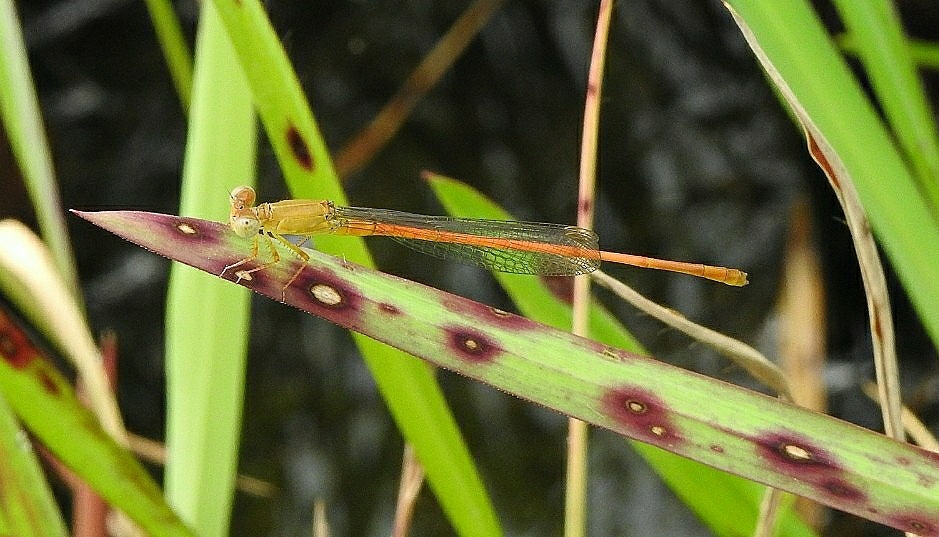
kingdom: Animalia
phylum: Arthropoda
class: Insecta
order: Odonata
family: Coenagrionidae
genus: Ceriagrion
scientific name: Ceriagrion rubiae
